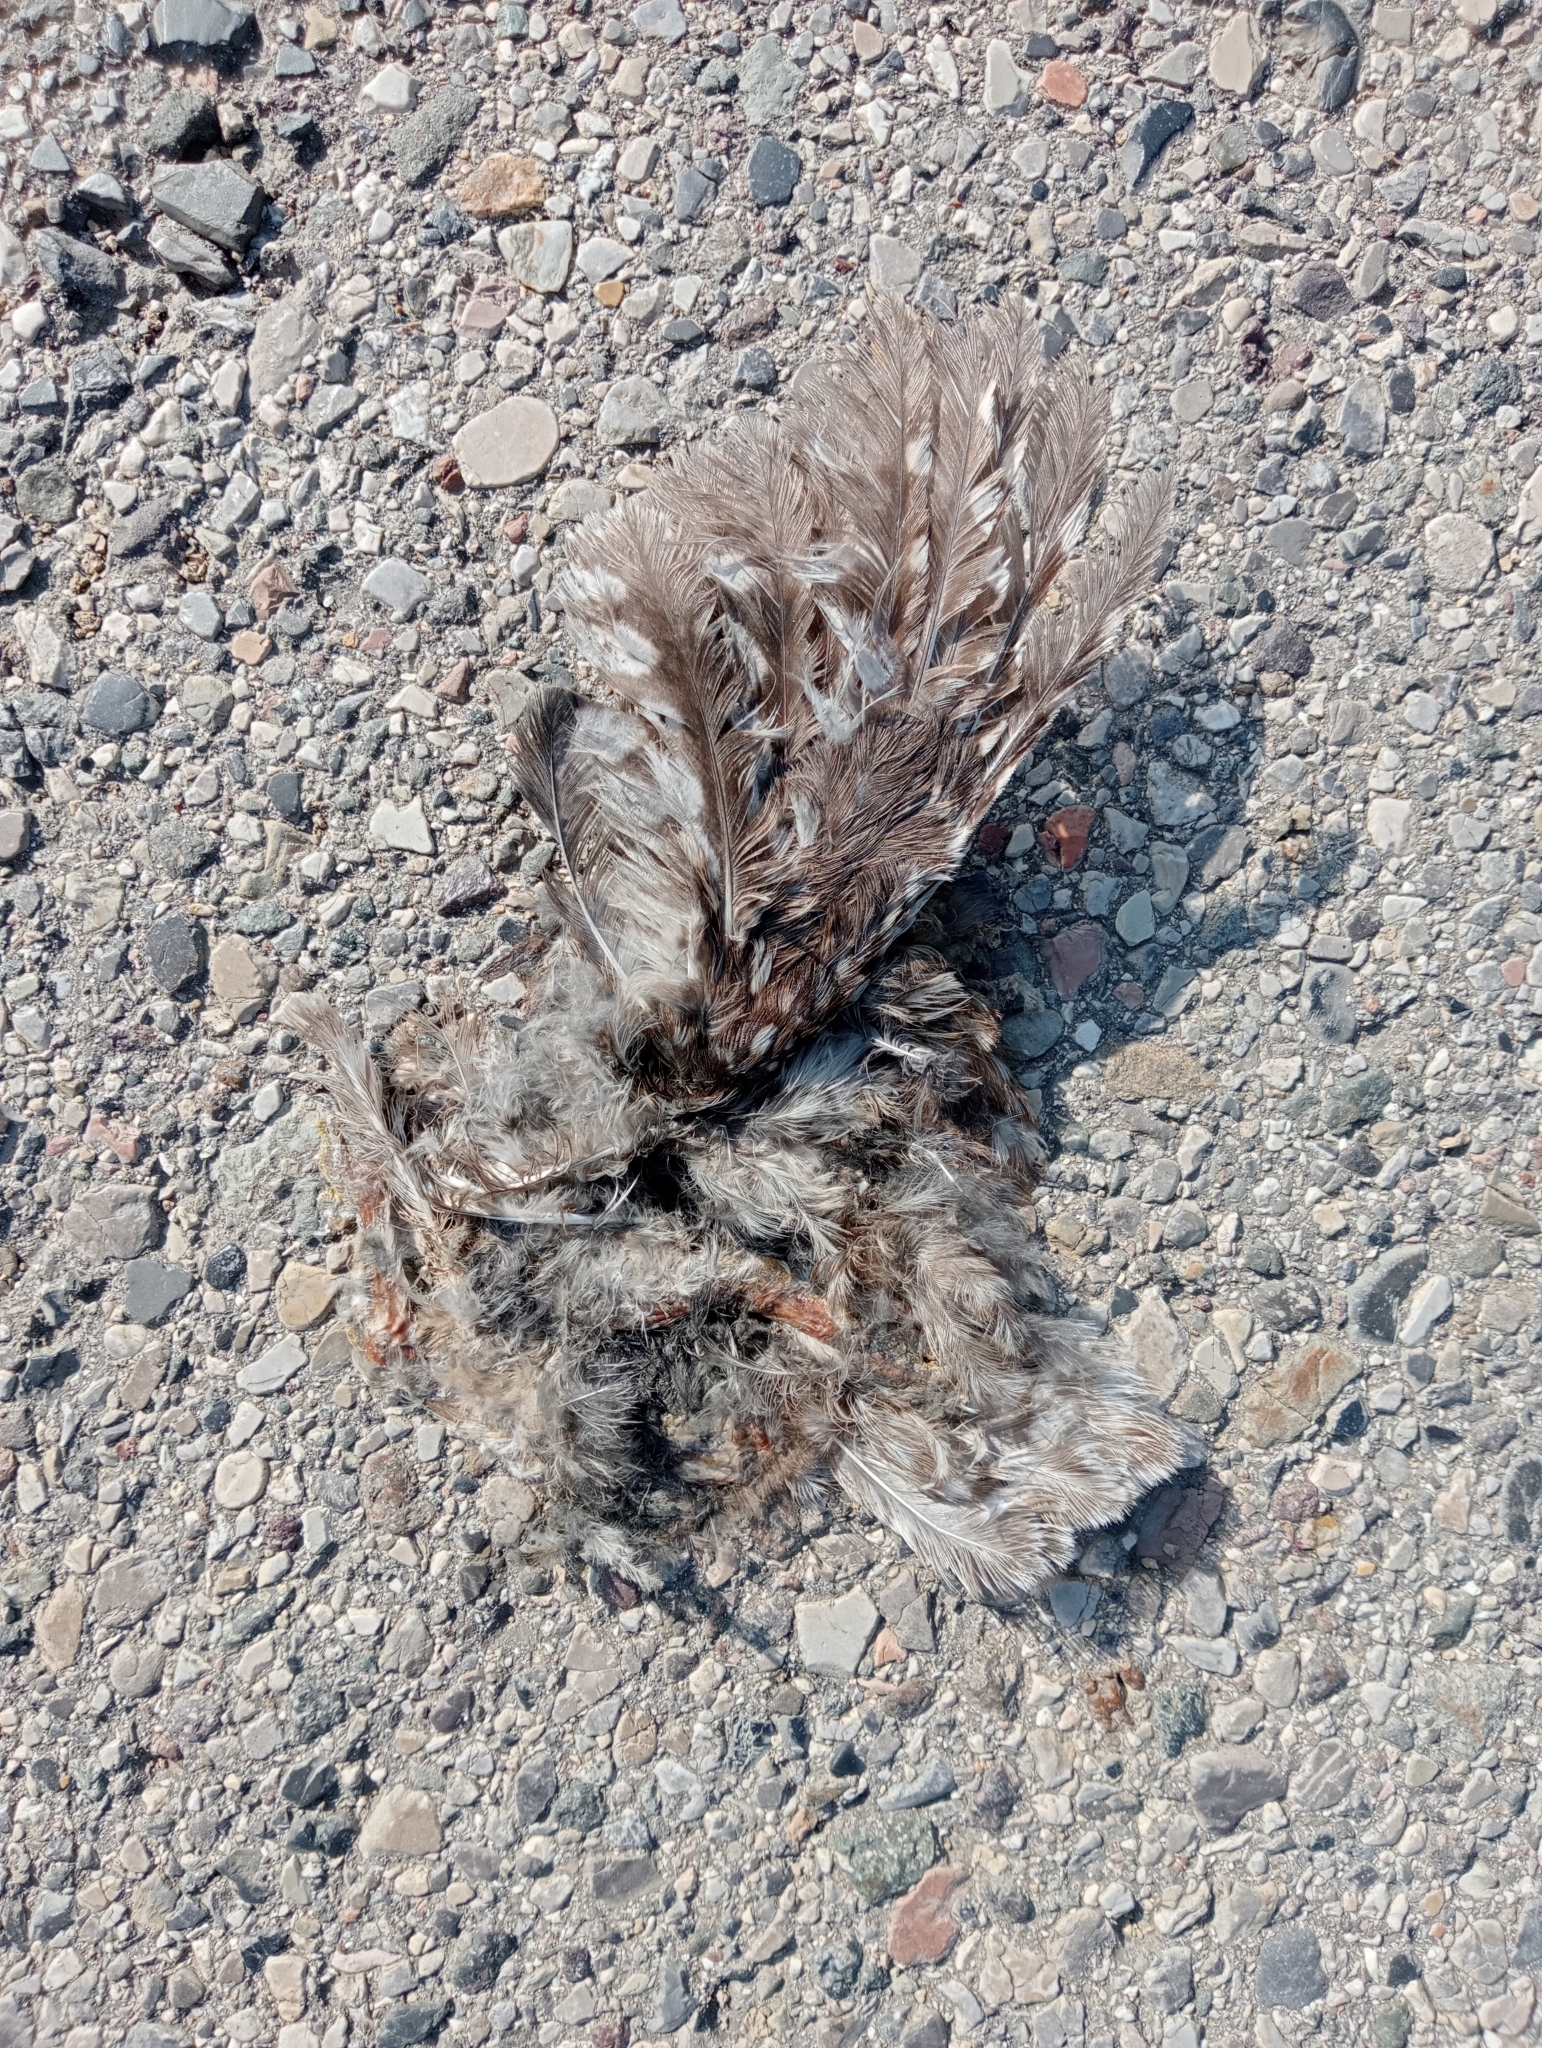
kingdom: Animalia
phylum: Chordata
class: Aves
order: Strigiformes
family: Strigidae
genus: Athene
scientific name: Athene noctua
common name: Little owl
